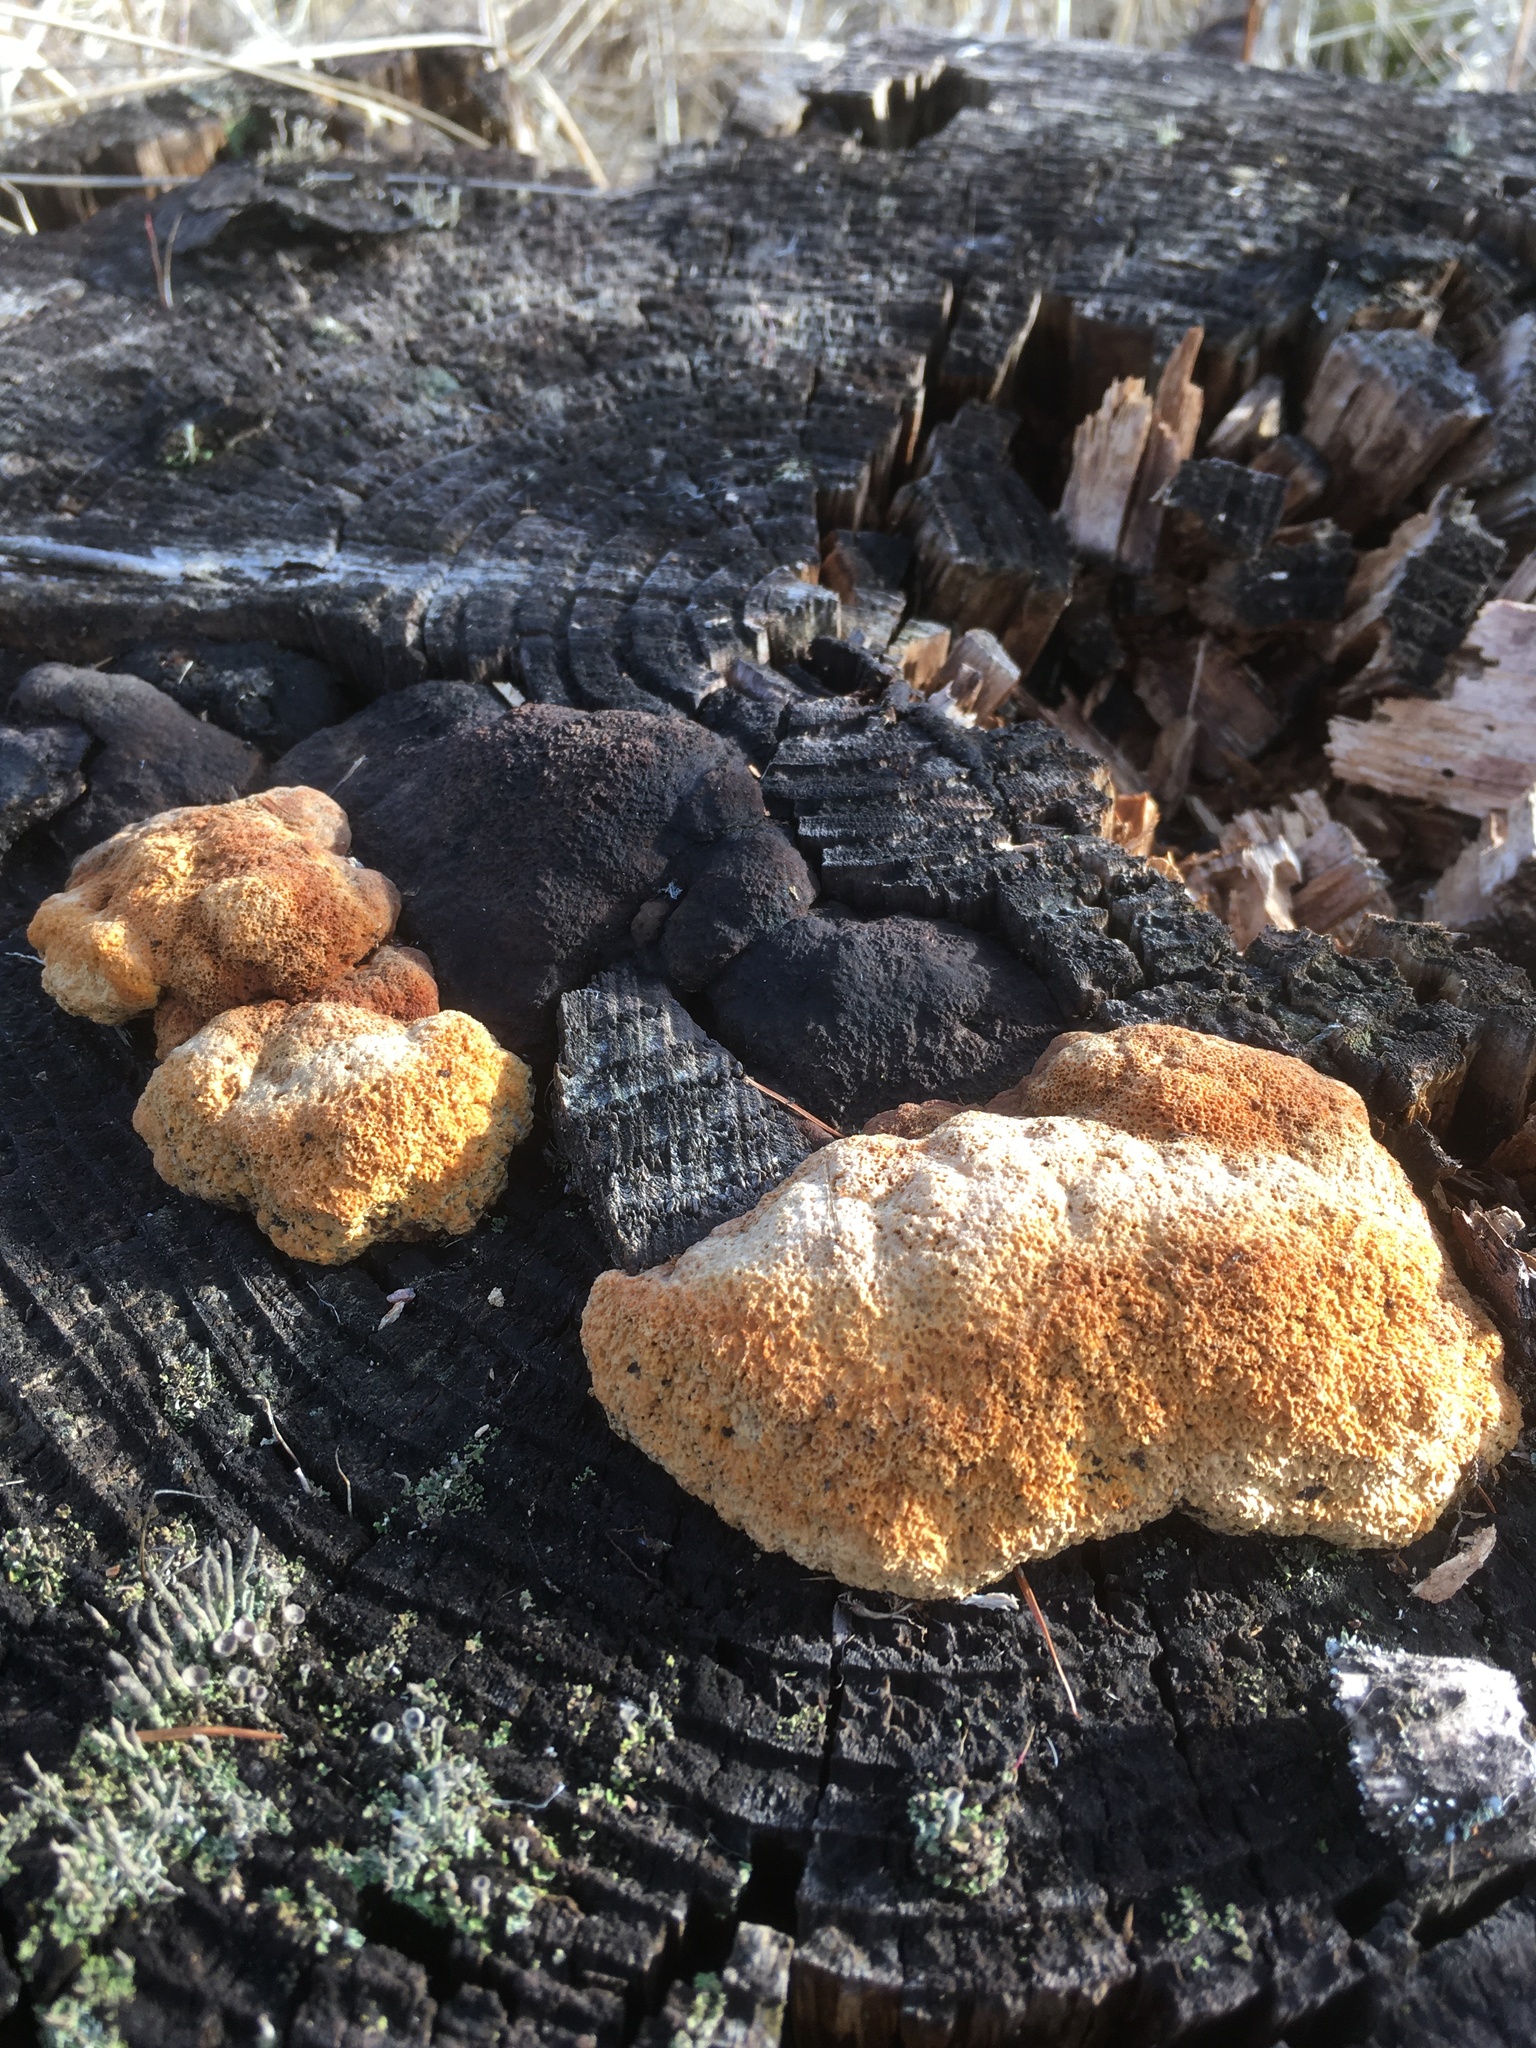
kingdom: Fungi
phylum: Basidiomycota
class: Agaricomycetes
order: Gloeophyllales
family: Gloeophyllaceae
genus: Gloeophyllum
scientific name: Gloeophyllum odoratum
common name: Anise mazegill
